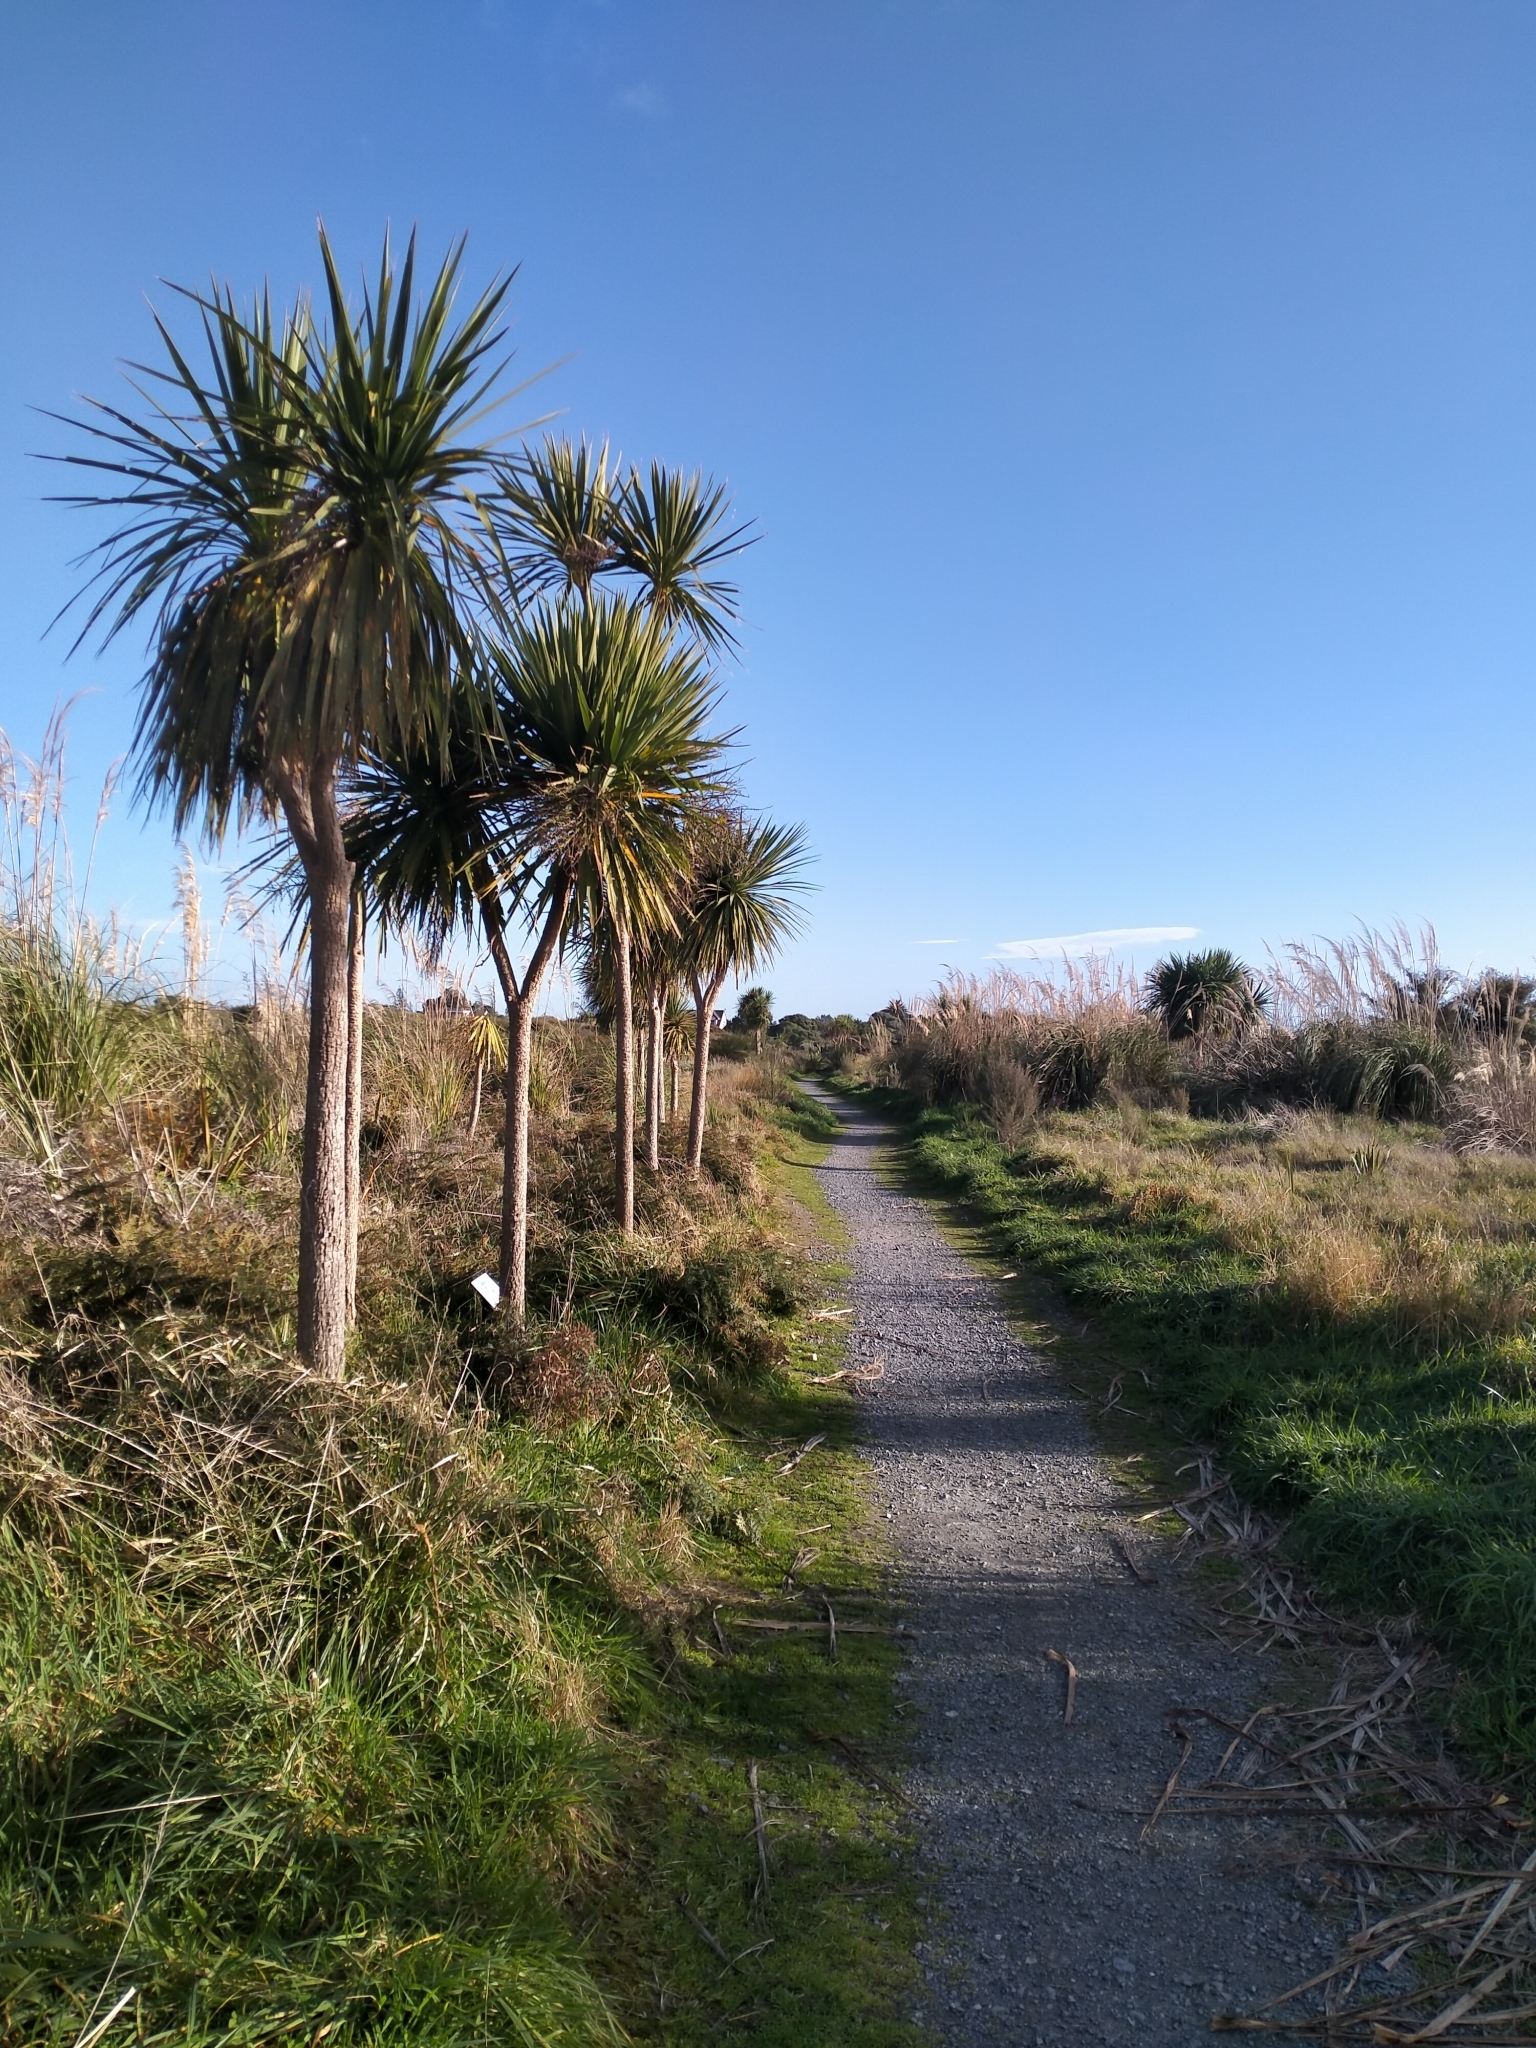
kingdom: Plantae
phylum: Tracheophyta
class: Liliopsida
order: Asparagales
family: Asparagaceae
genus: Cordyline
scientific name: Cordyline australis
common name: Cabbage-palm
